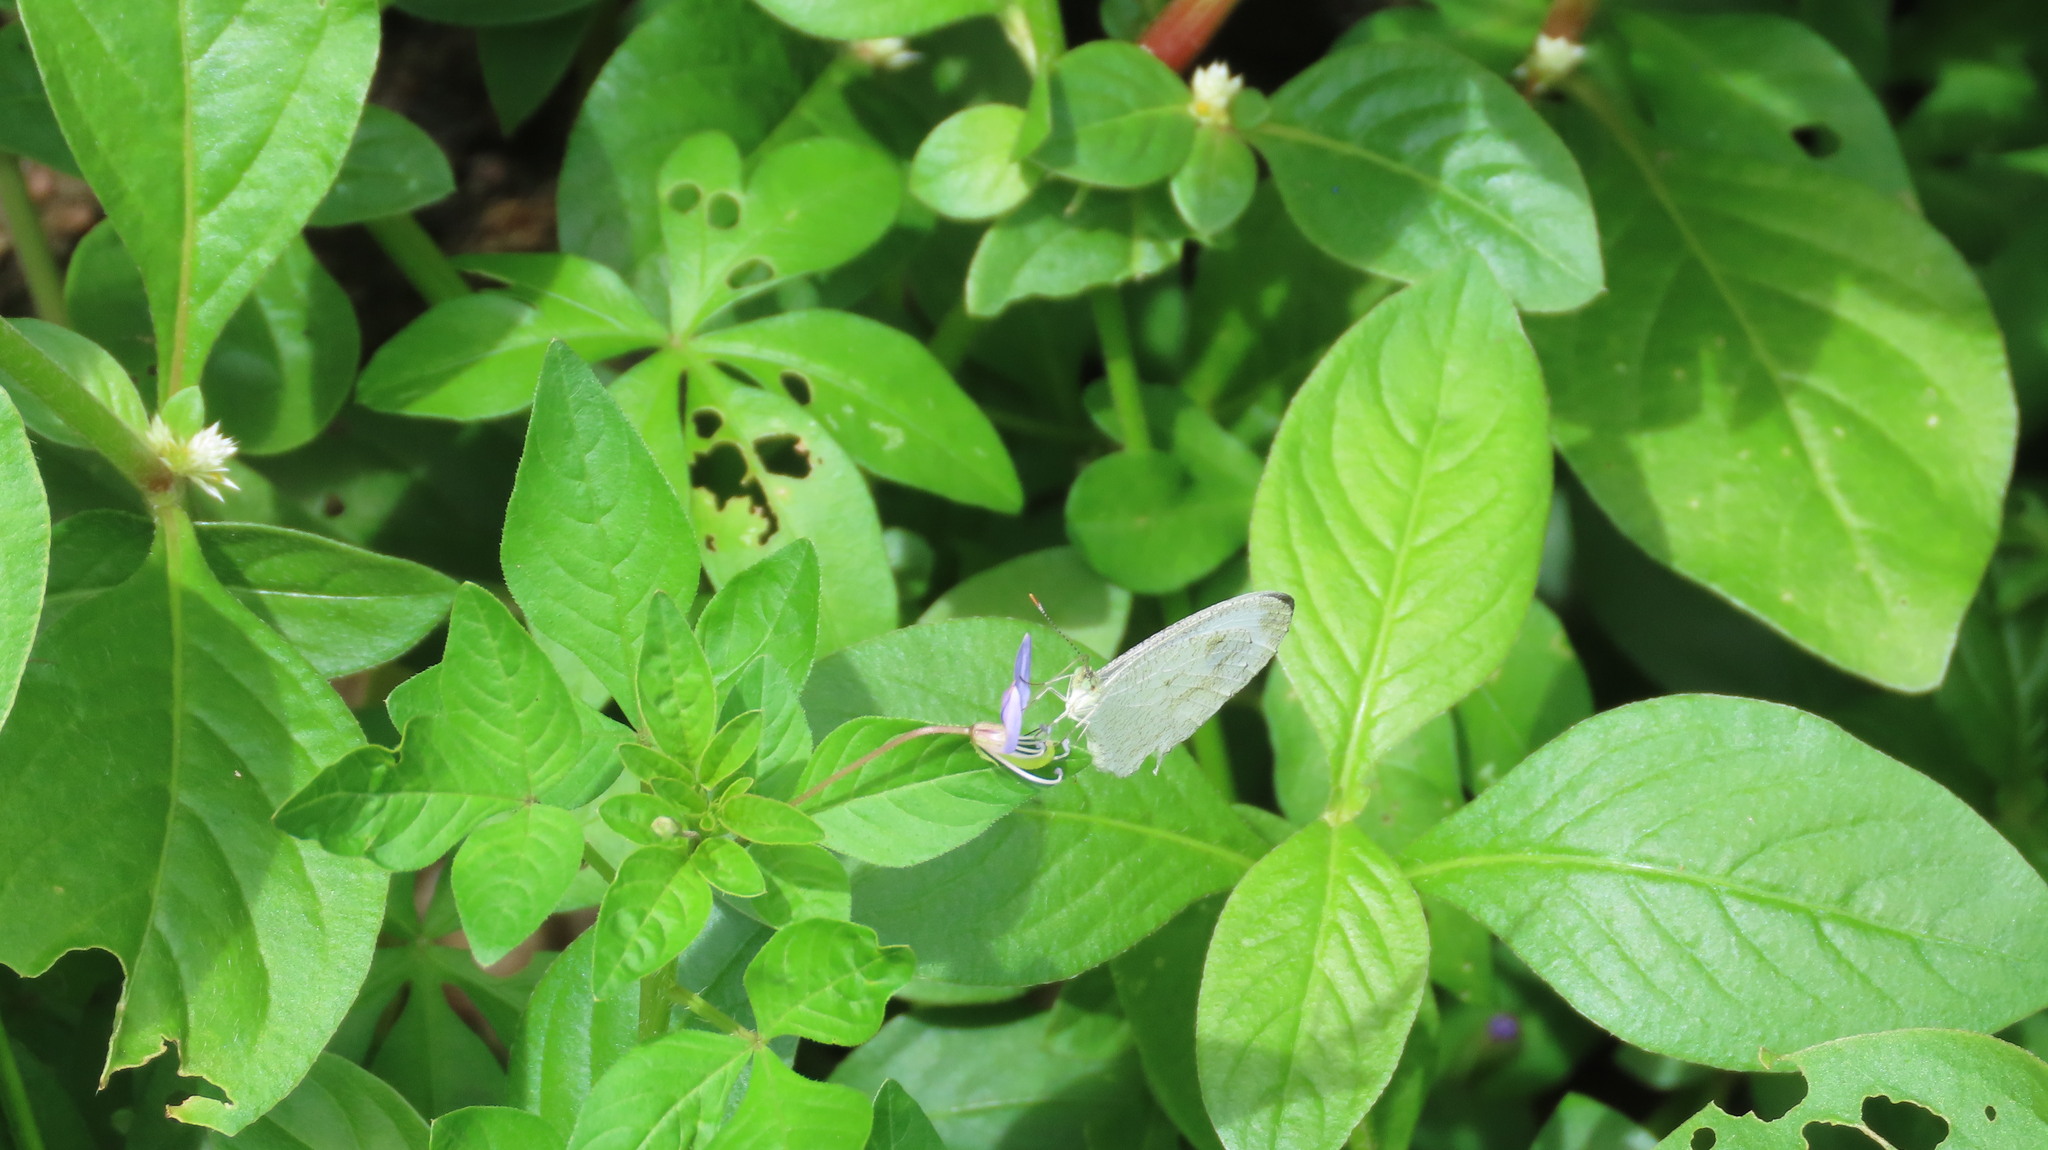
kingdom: Animalia
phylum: Arthropoda
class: Insecta
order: Lepidoptera
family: Pieridae
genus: Leptosia
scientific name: Leptosia nina
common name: Psyche
